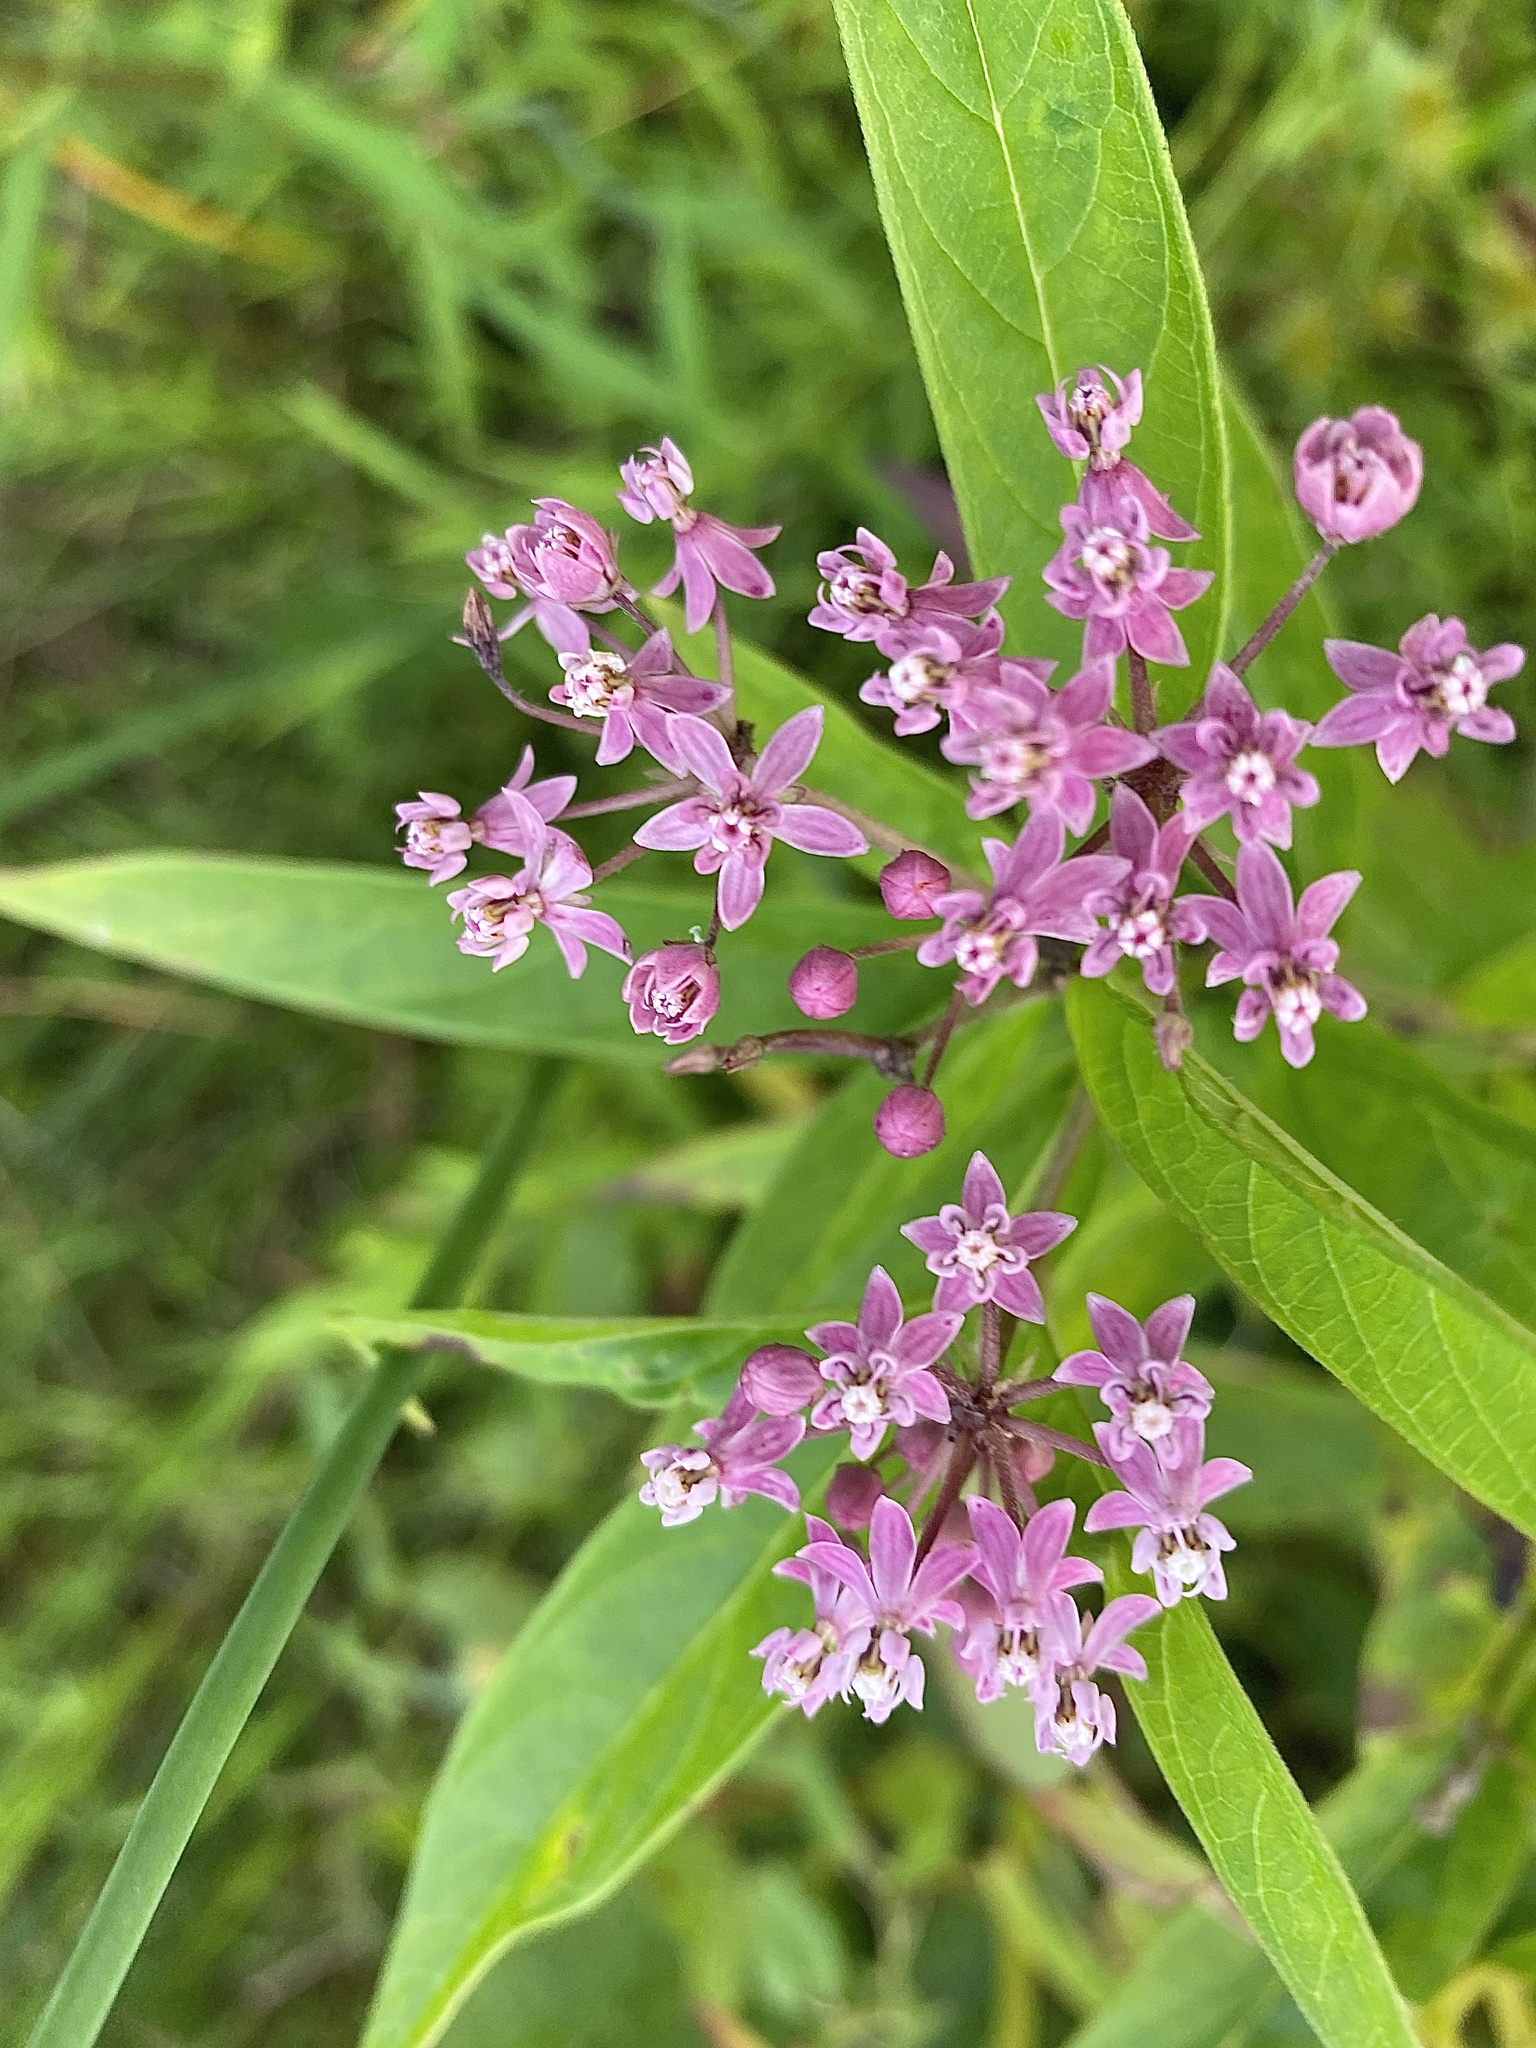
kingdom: Plantae
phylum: Tracheophyta
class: Magnoliopsida
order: Gentianales
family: Apocynaceae
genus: Asclepias
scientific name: Asclepias incarnata
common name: Swamp milkweed
